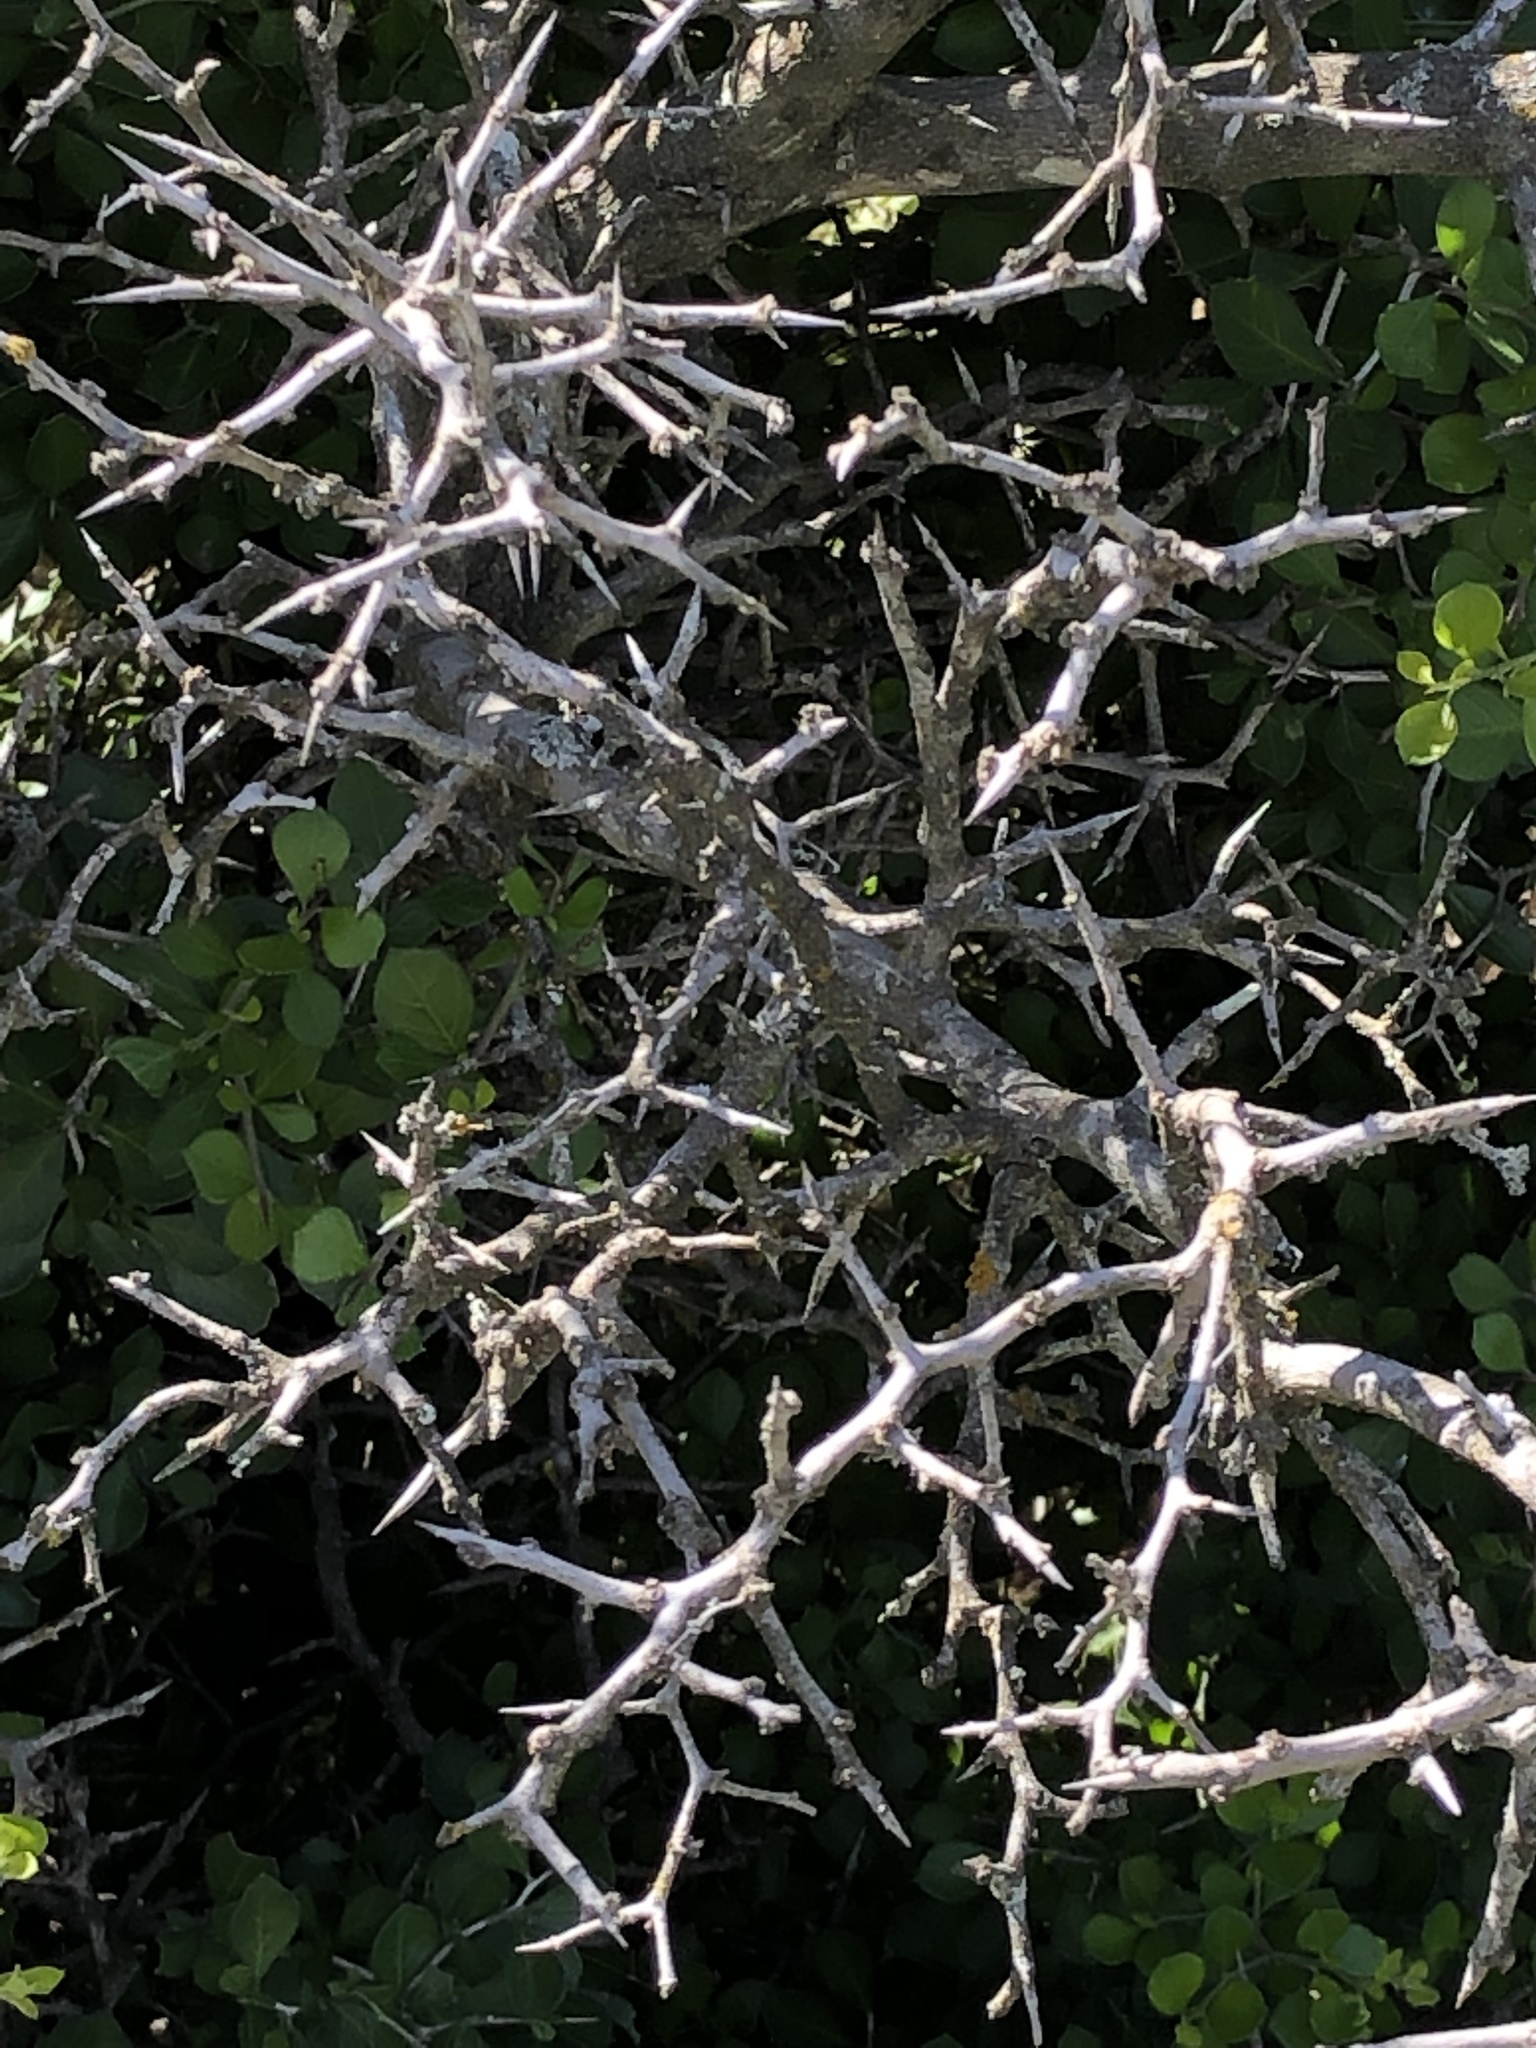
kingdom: Plantae
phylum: Tracheophyta
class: Magnoliopsida
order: Rosales
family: Rhamnaceae
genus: Condalia
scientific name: Condalia hookeri
